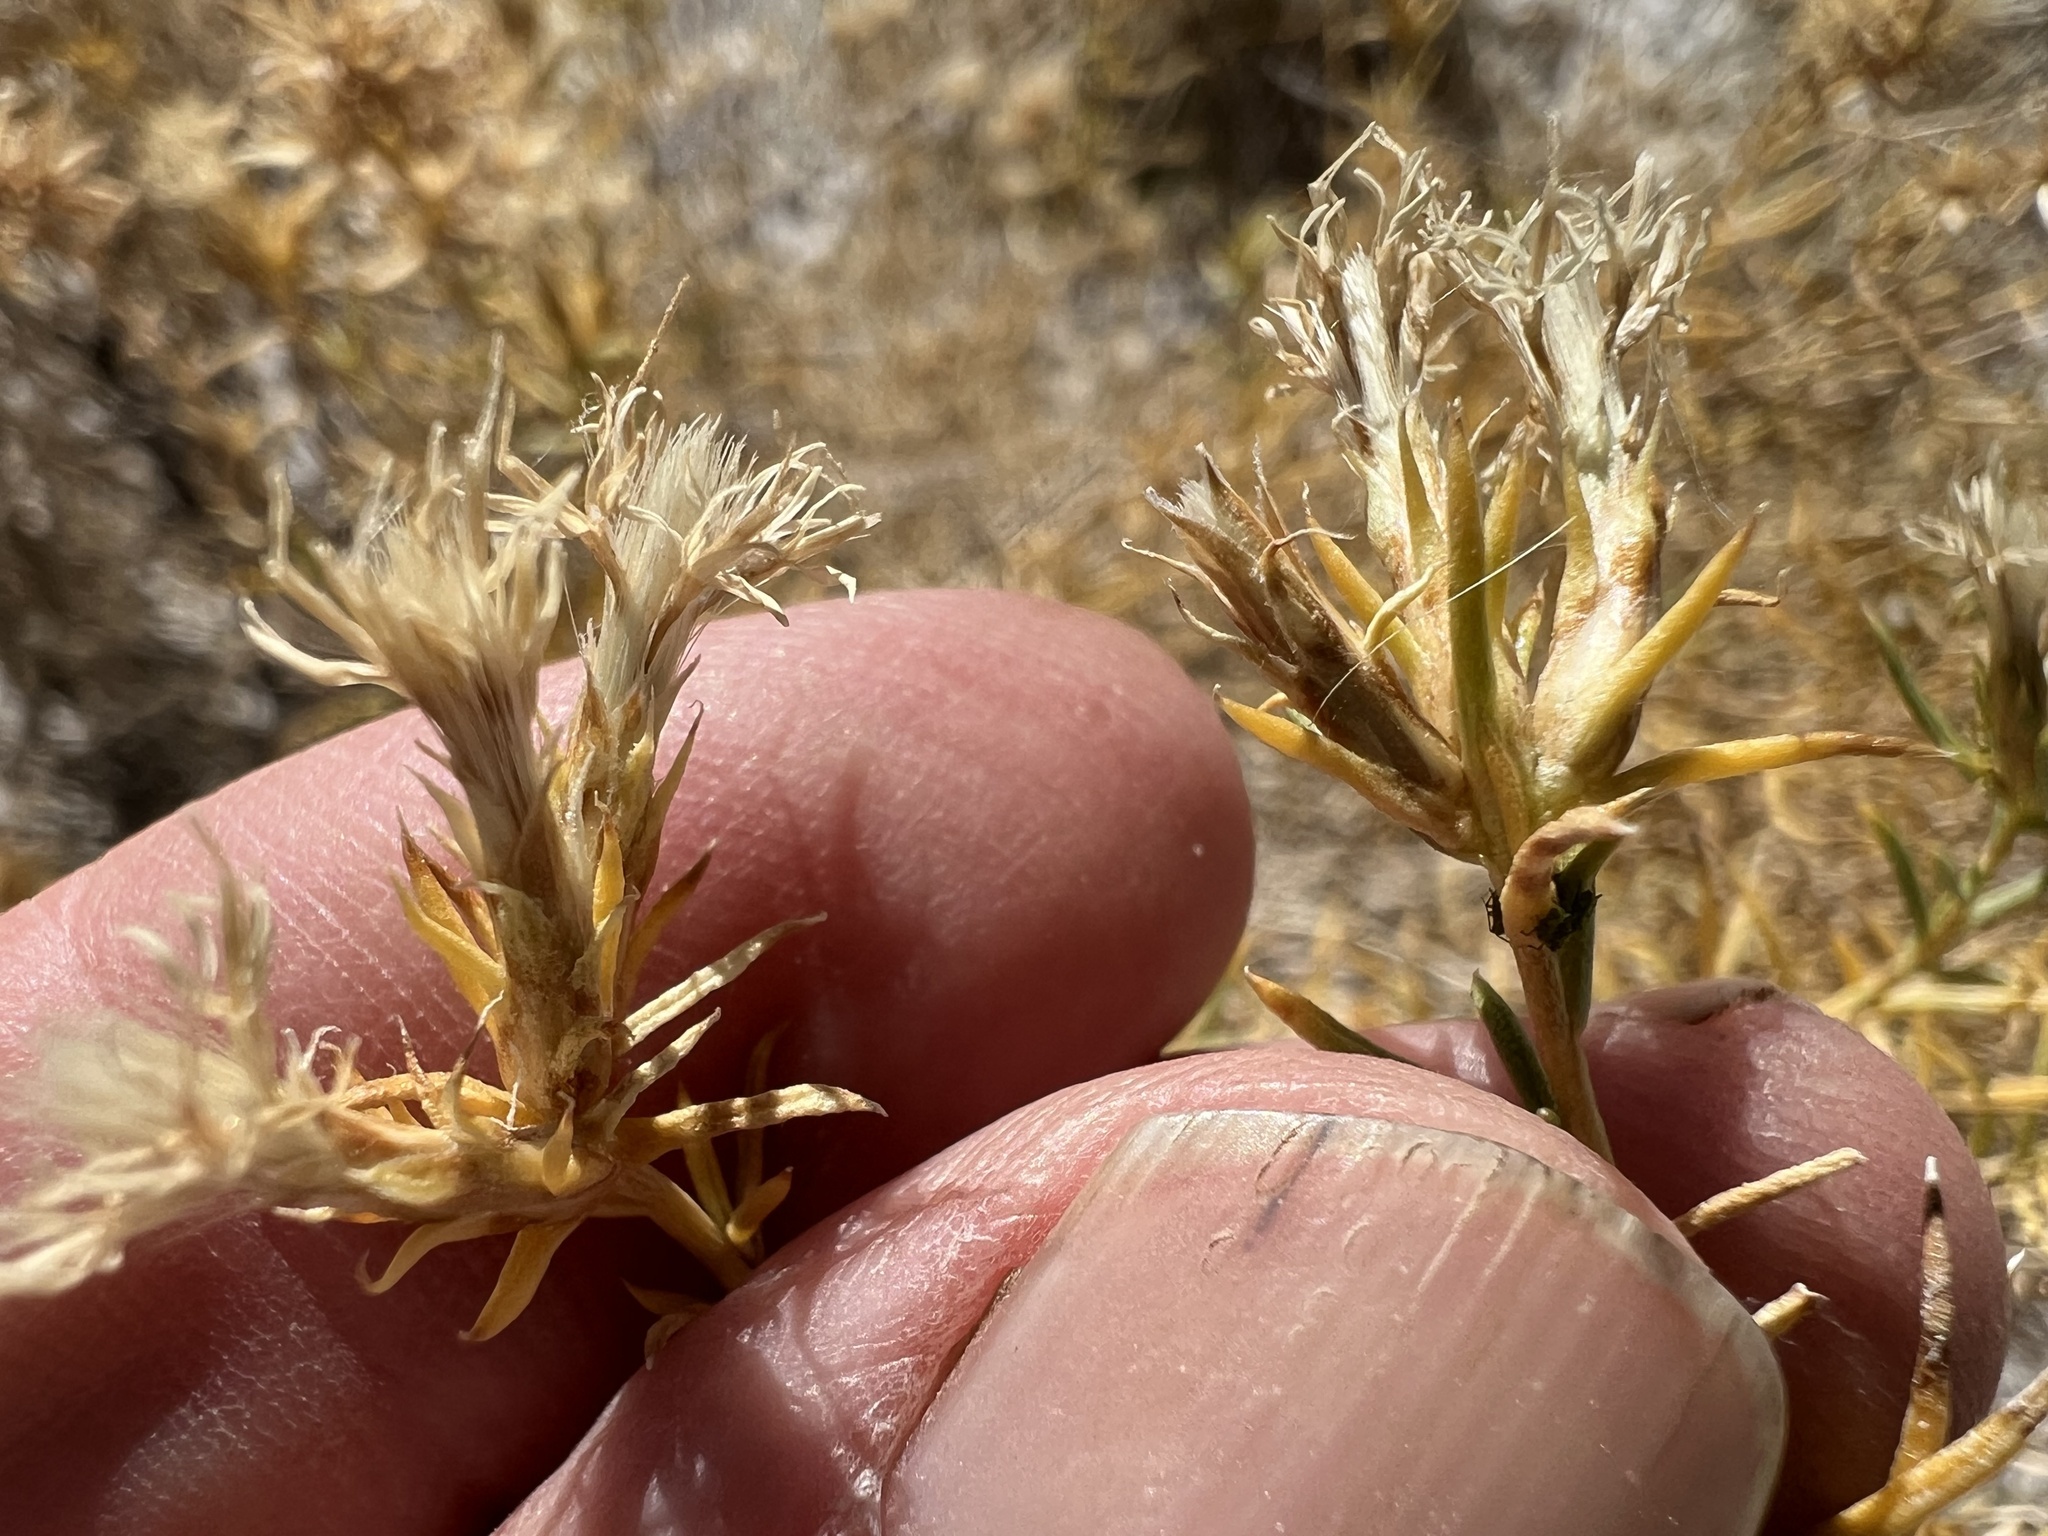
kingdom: Plantae
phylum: Tracheophyta
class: Magnoliopsida
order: Asterales
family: Asteraceae
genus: Ericameria
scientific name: Ericameria albida
